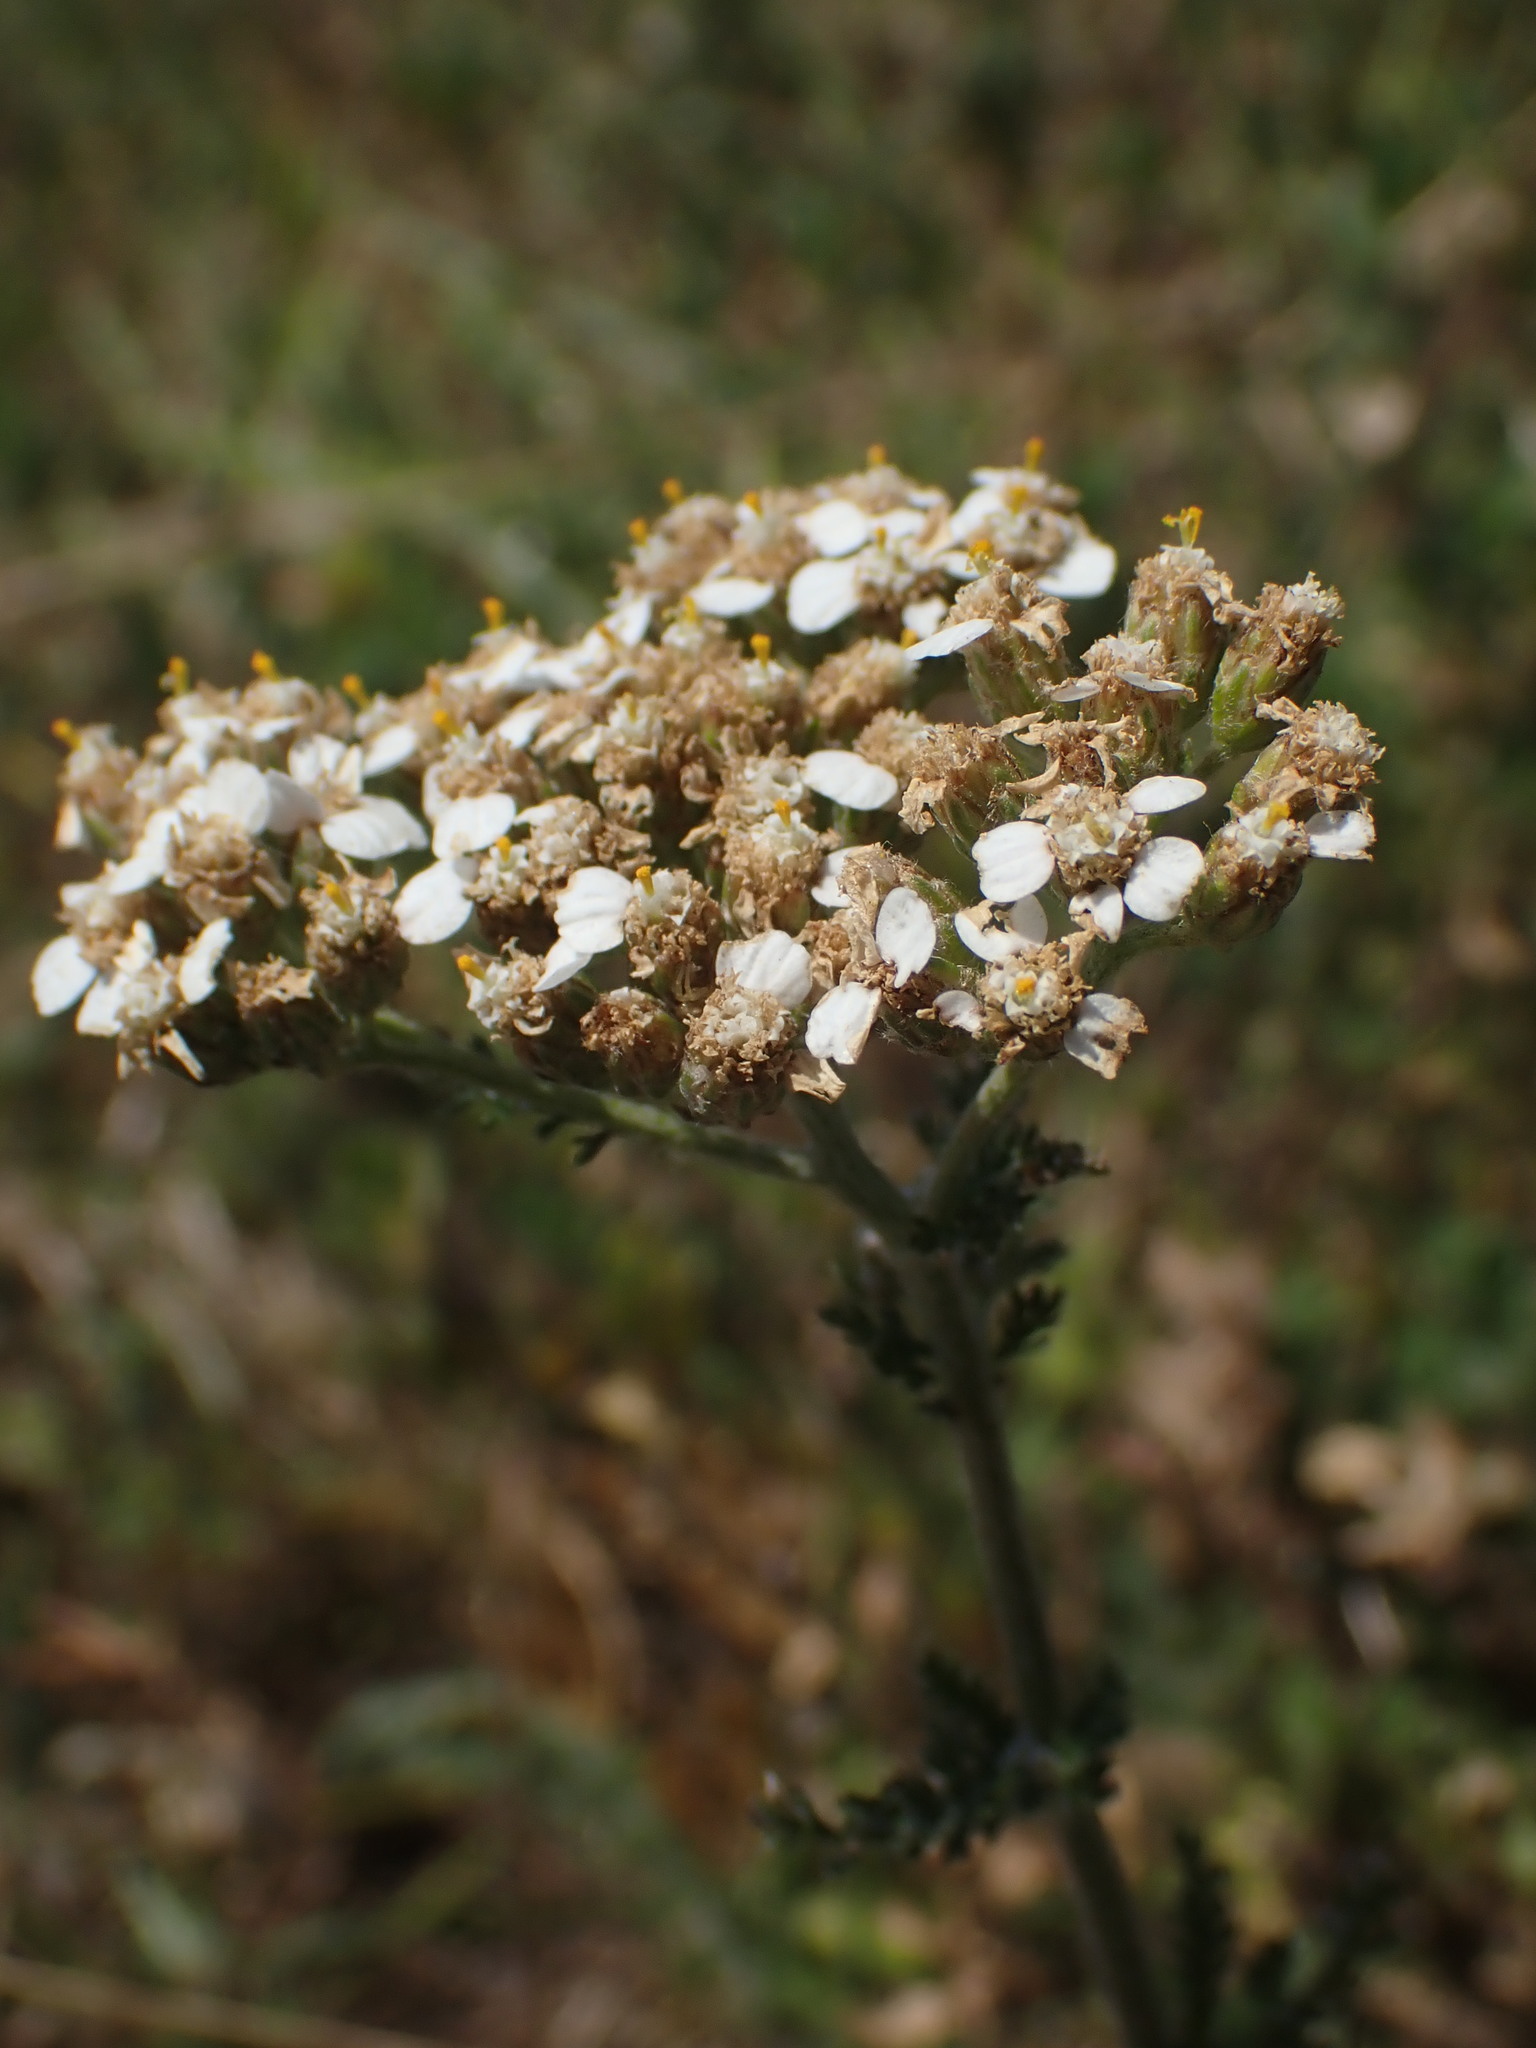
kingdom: Plantae
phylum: Tracheophyta
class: Magnoliopsida
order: Asterales
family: Asteraceae
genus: Achillea
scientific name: Achillea millefolium
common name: Yarrow
